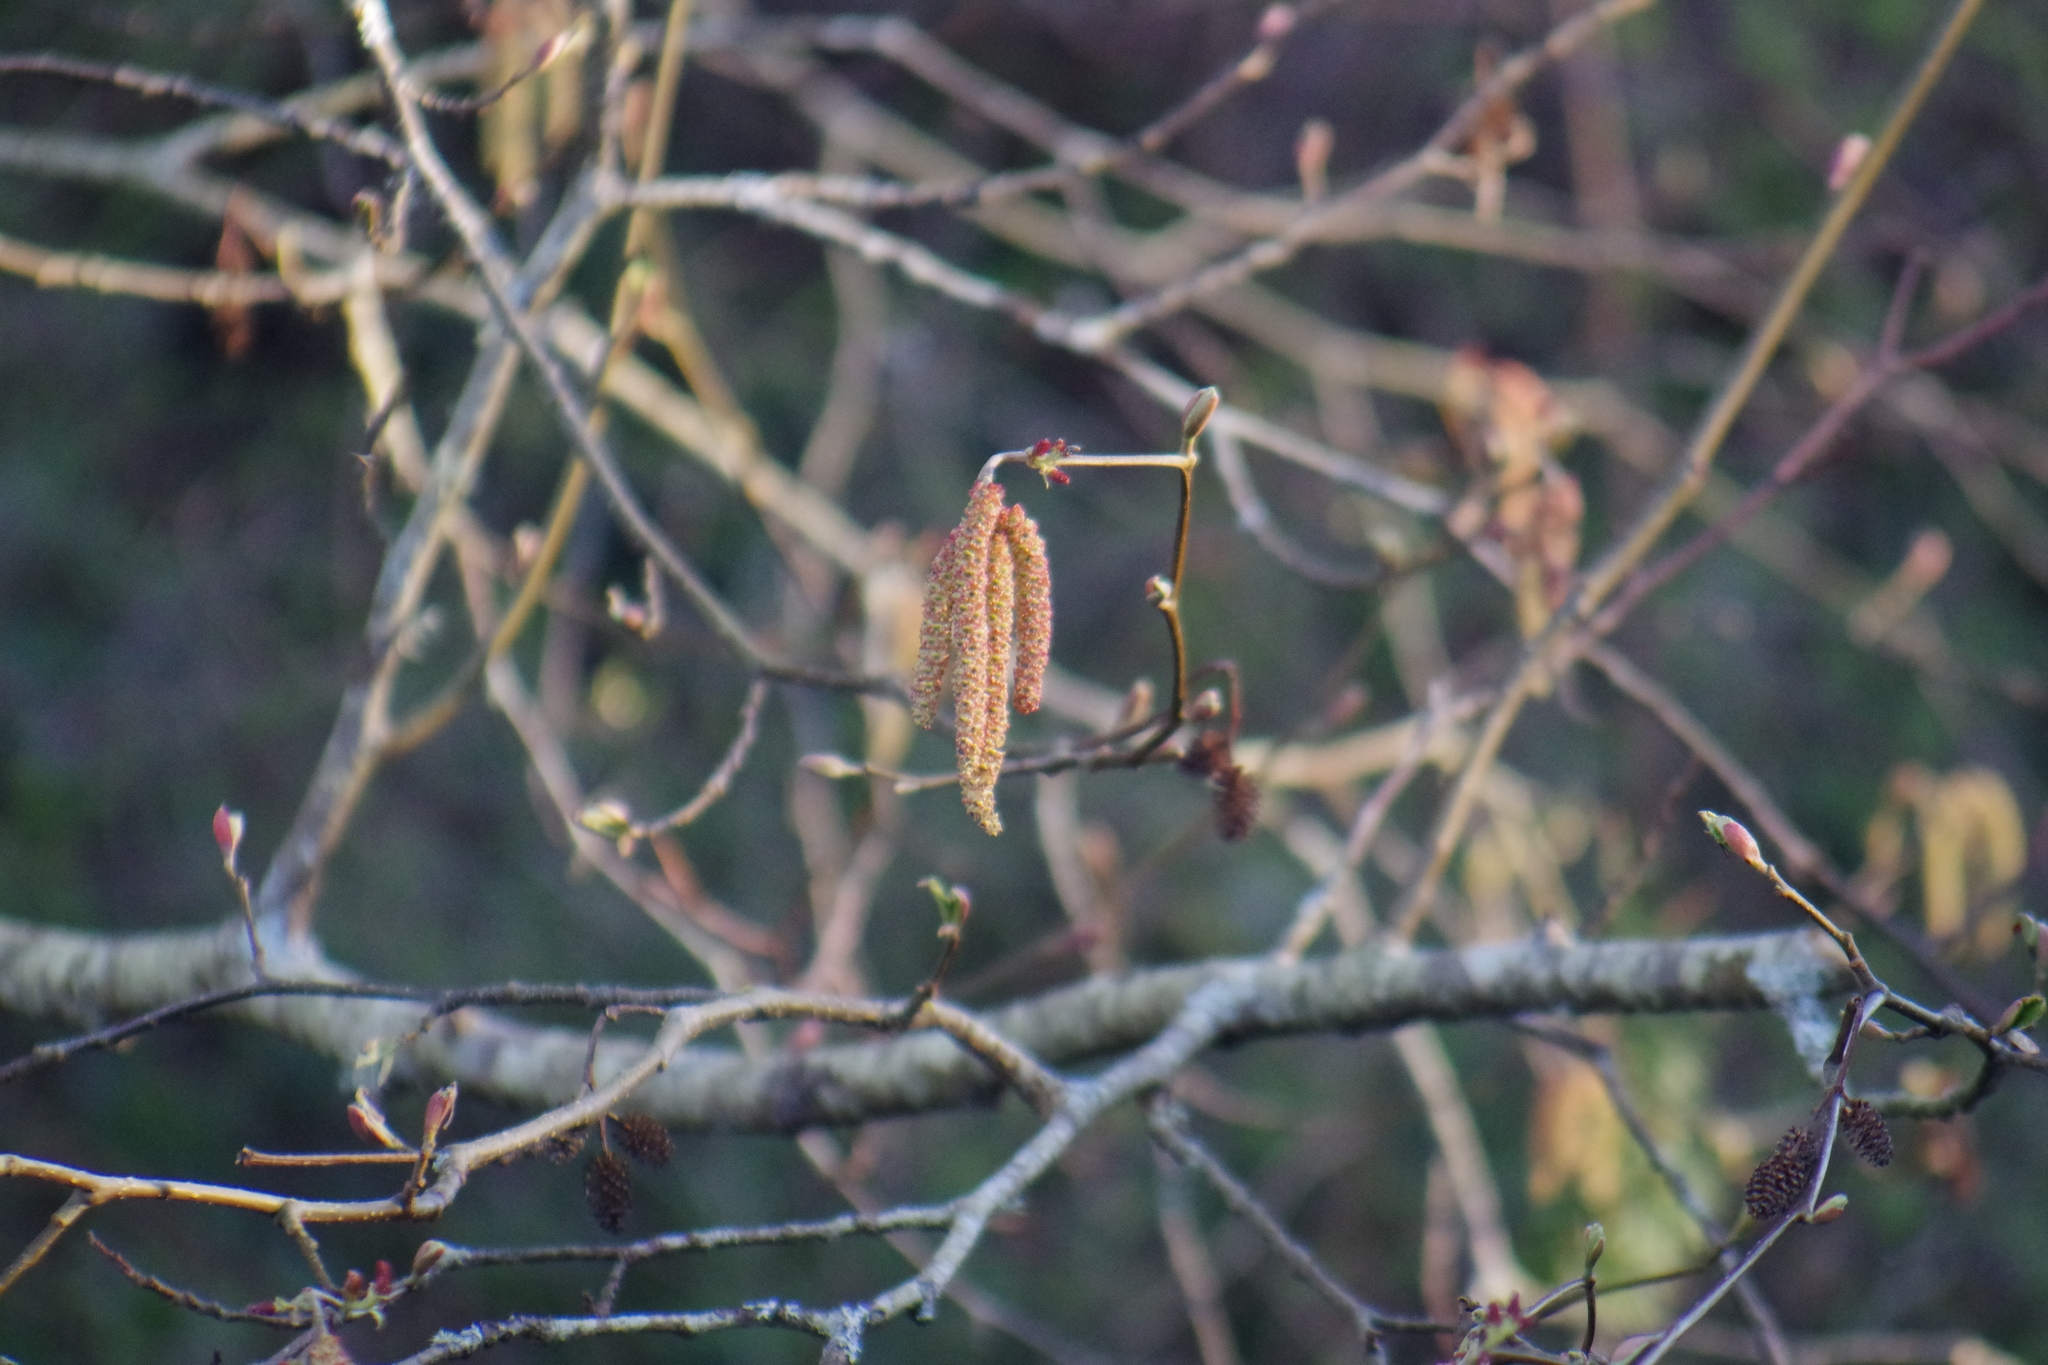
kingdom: Plantae
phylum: Tracheophyta
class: Magnoliopsida
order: Fagales
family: Betulaceae
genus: Alnus
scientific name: Alnus rubra
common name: Red alder
